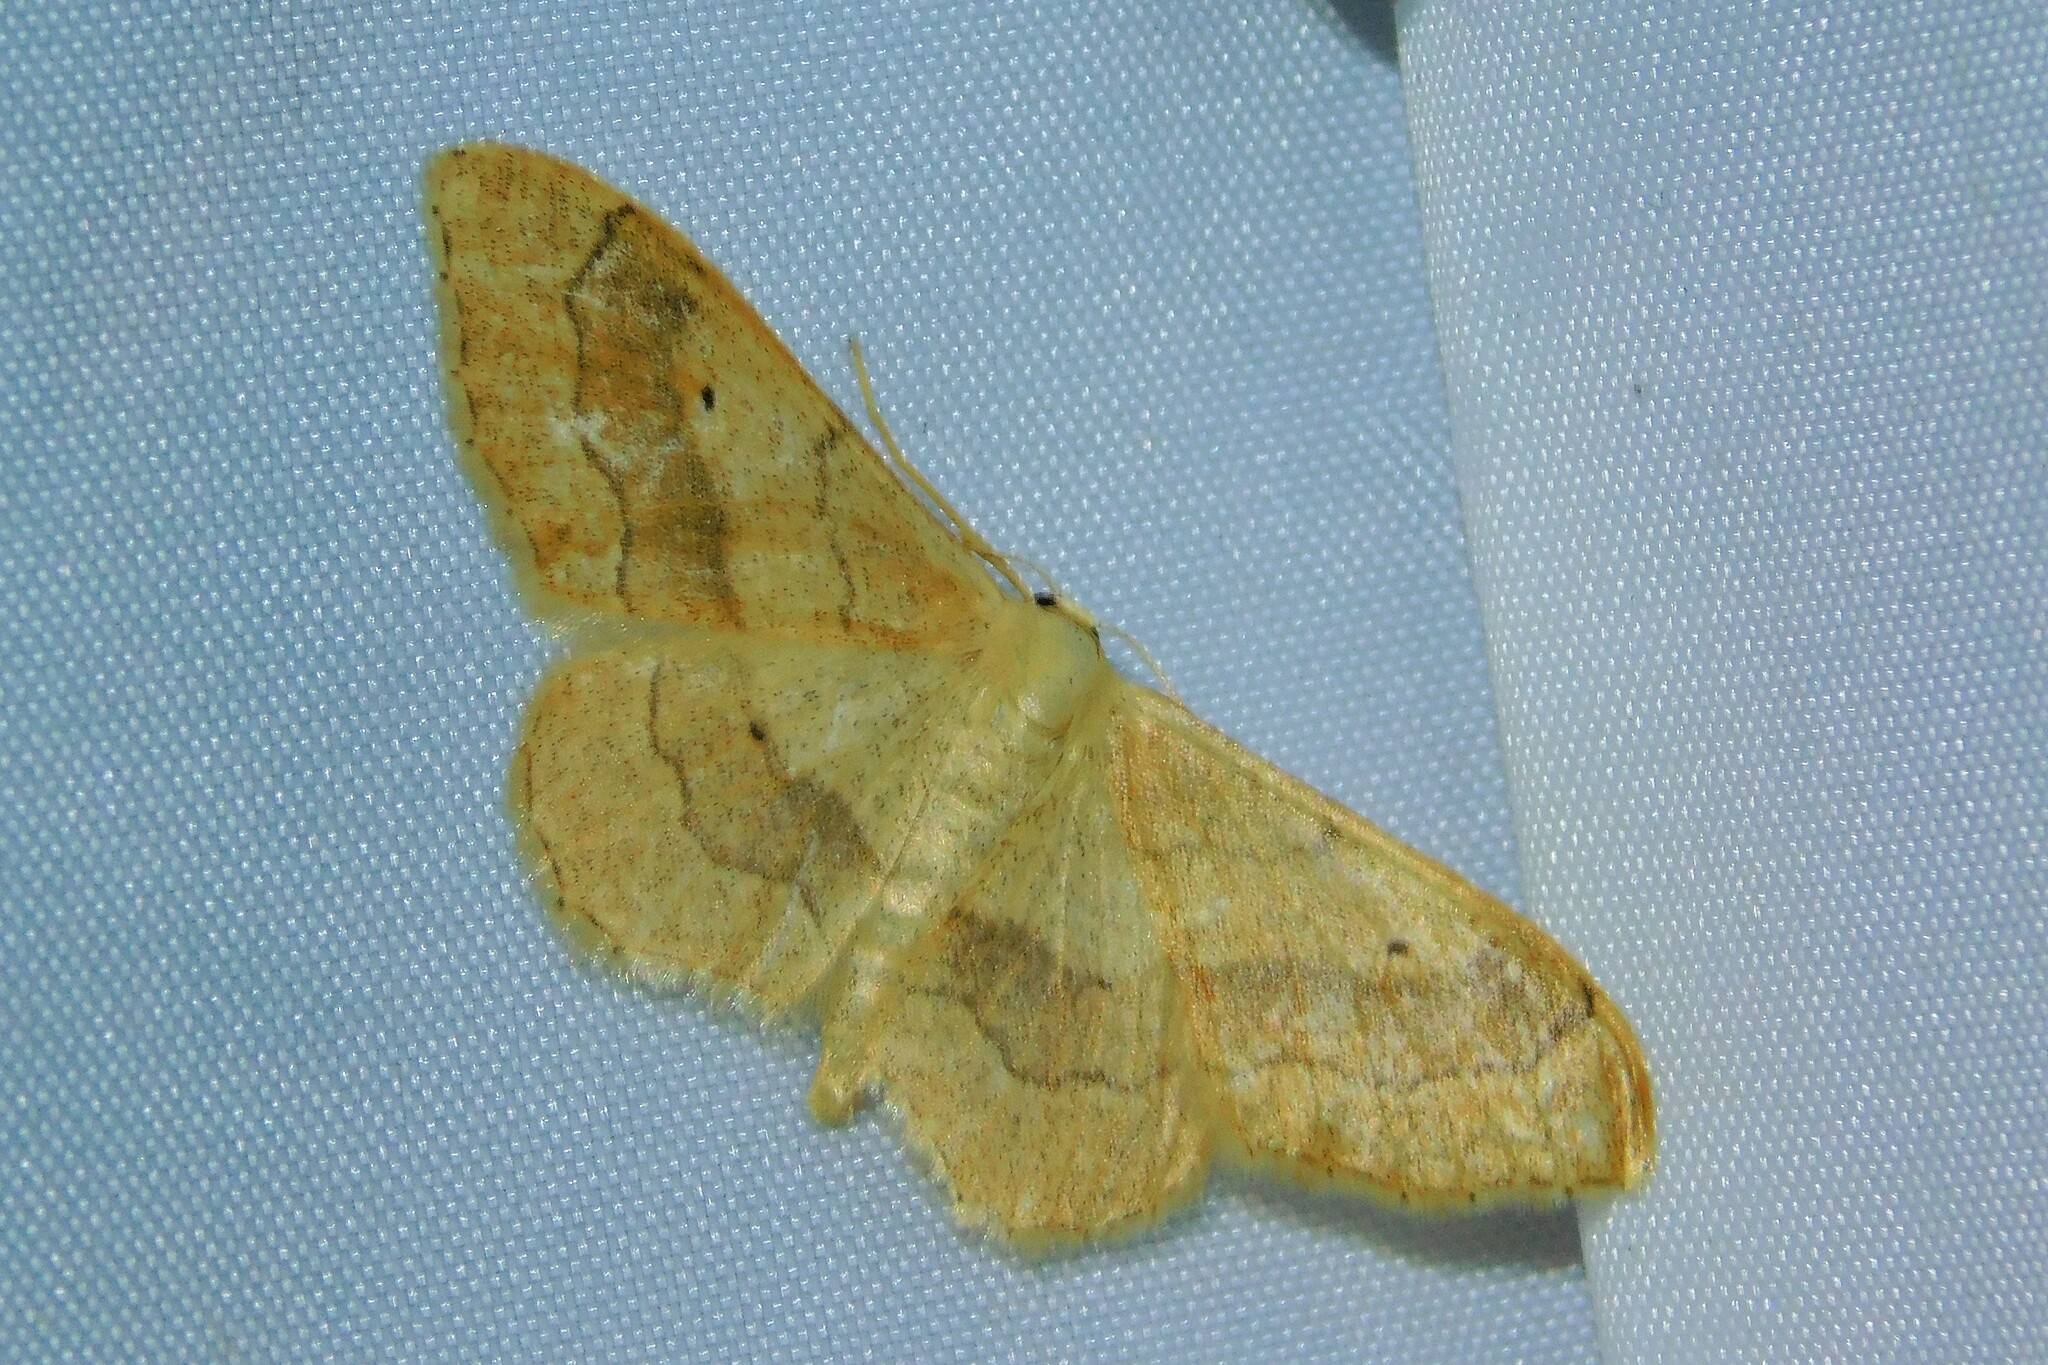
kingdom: Animalia
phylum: Arthropoda
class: Insecta
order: Lepidoptera
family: Geometridae
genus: Idaea
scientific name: Idaea aversata
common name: Riband wave
